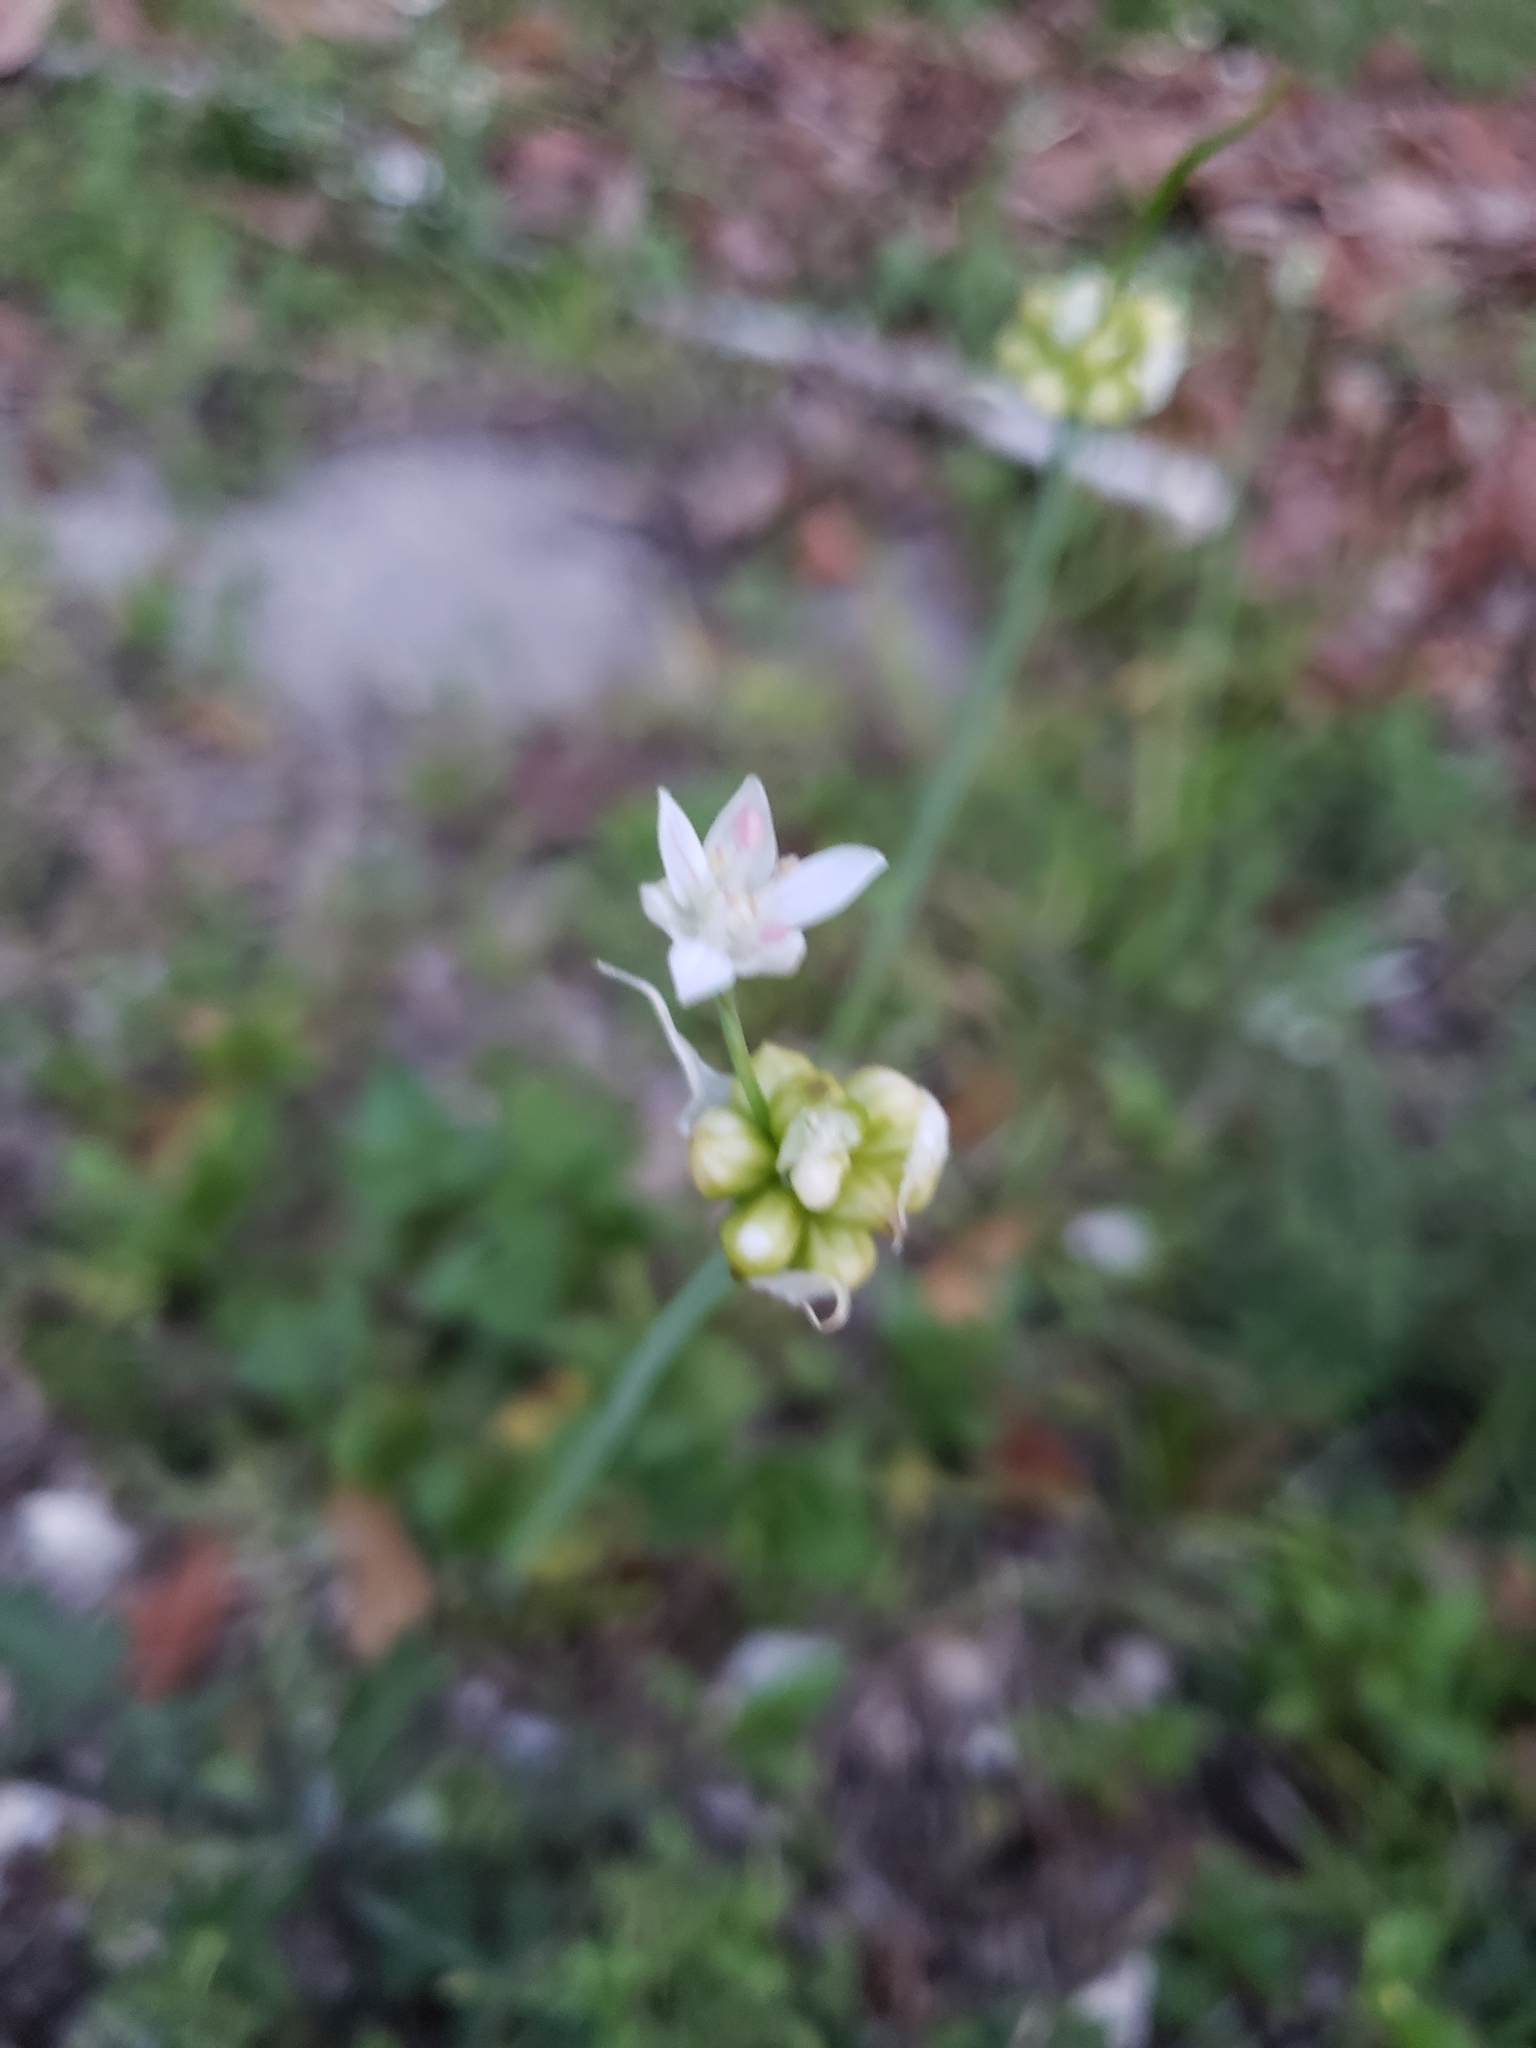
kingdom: Plantae
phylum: Tracheophyta
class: Liliopsida
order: Asparagales
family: Amaryllidaceae
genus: Allium
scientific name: Allium canadense
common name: Meadow garlic
